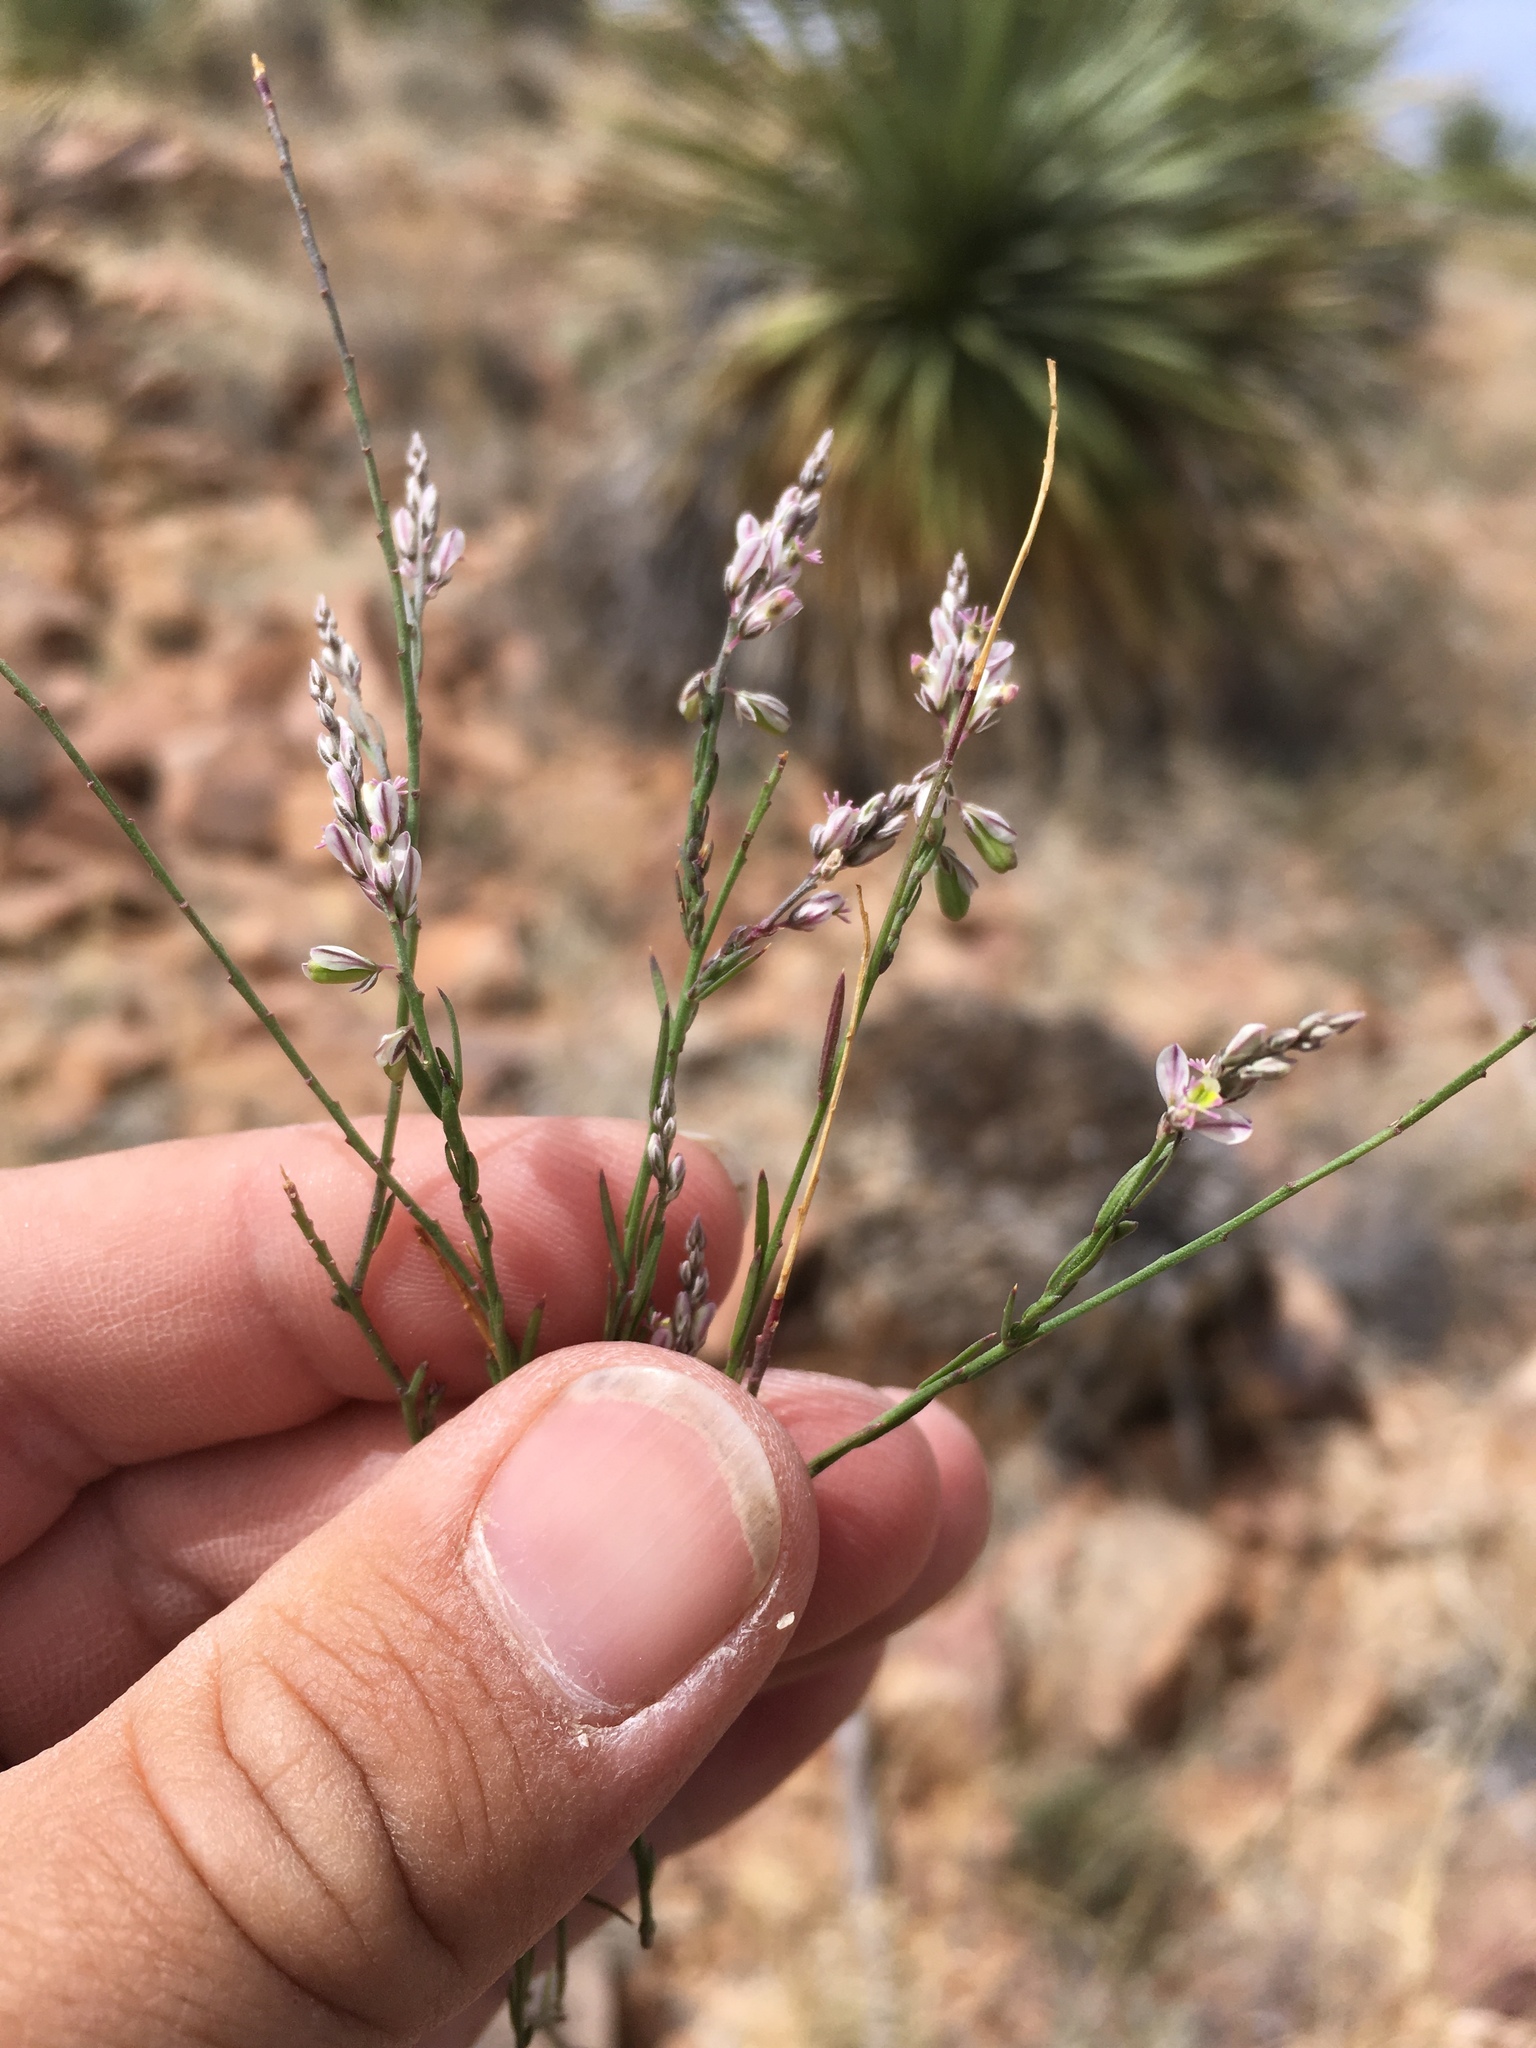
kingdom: Plantae
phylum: Tracheophyta
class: Magnoliopsida
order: Fabales
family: Polygalaceae
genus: Polygala
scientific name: Polygala scoparioides
